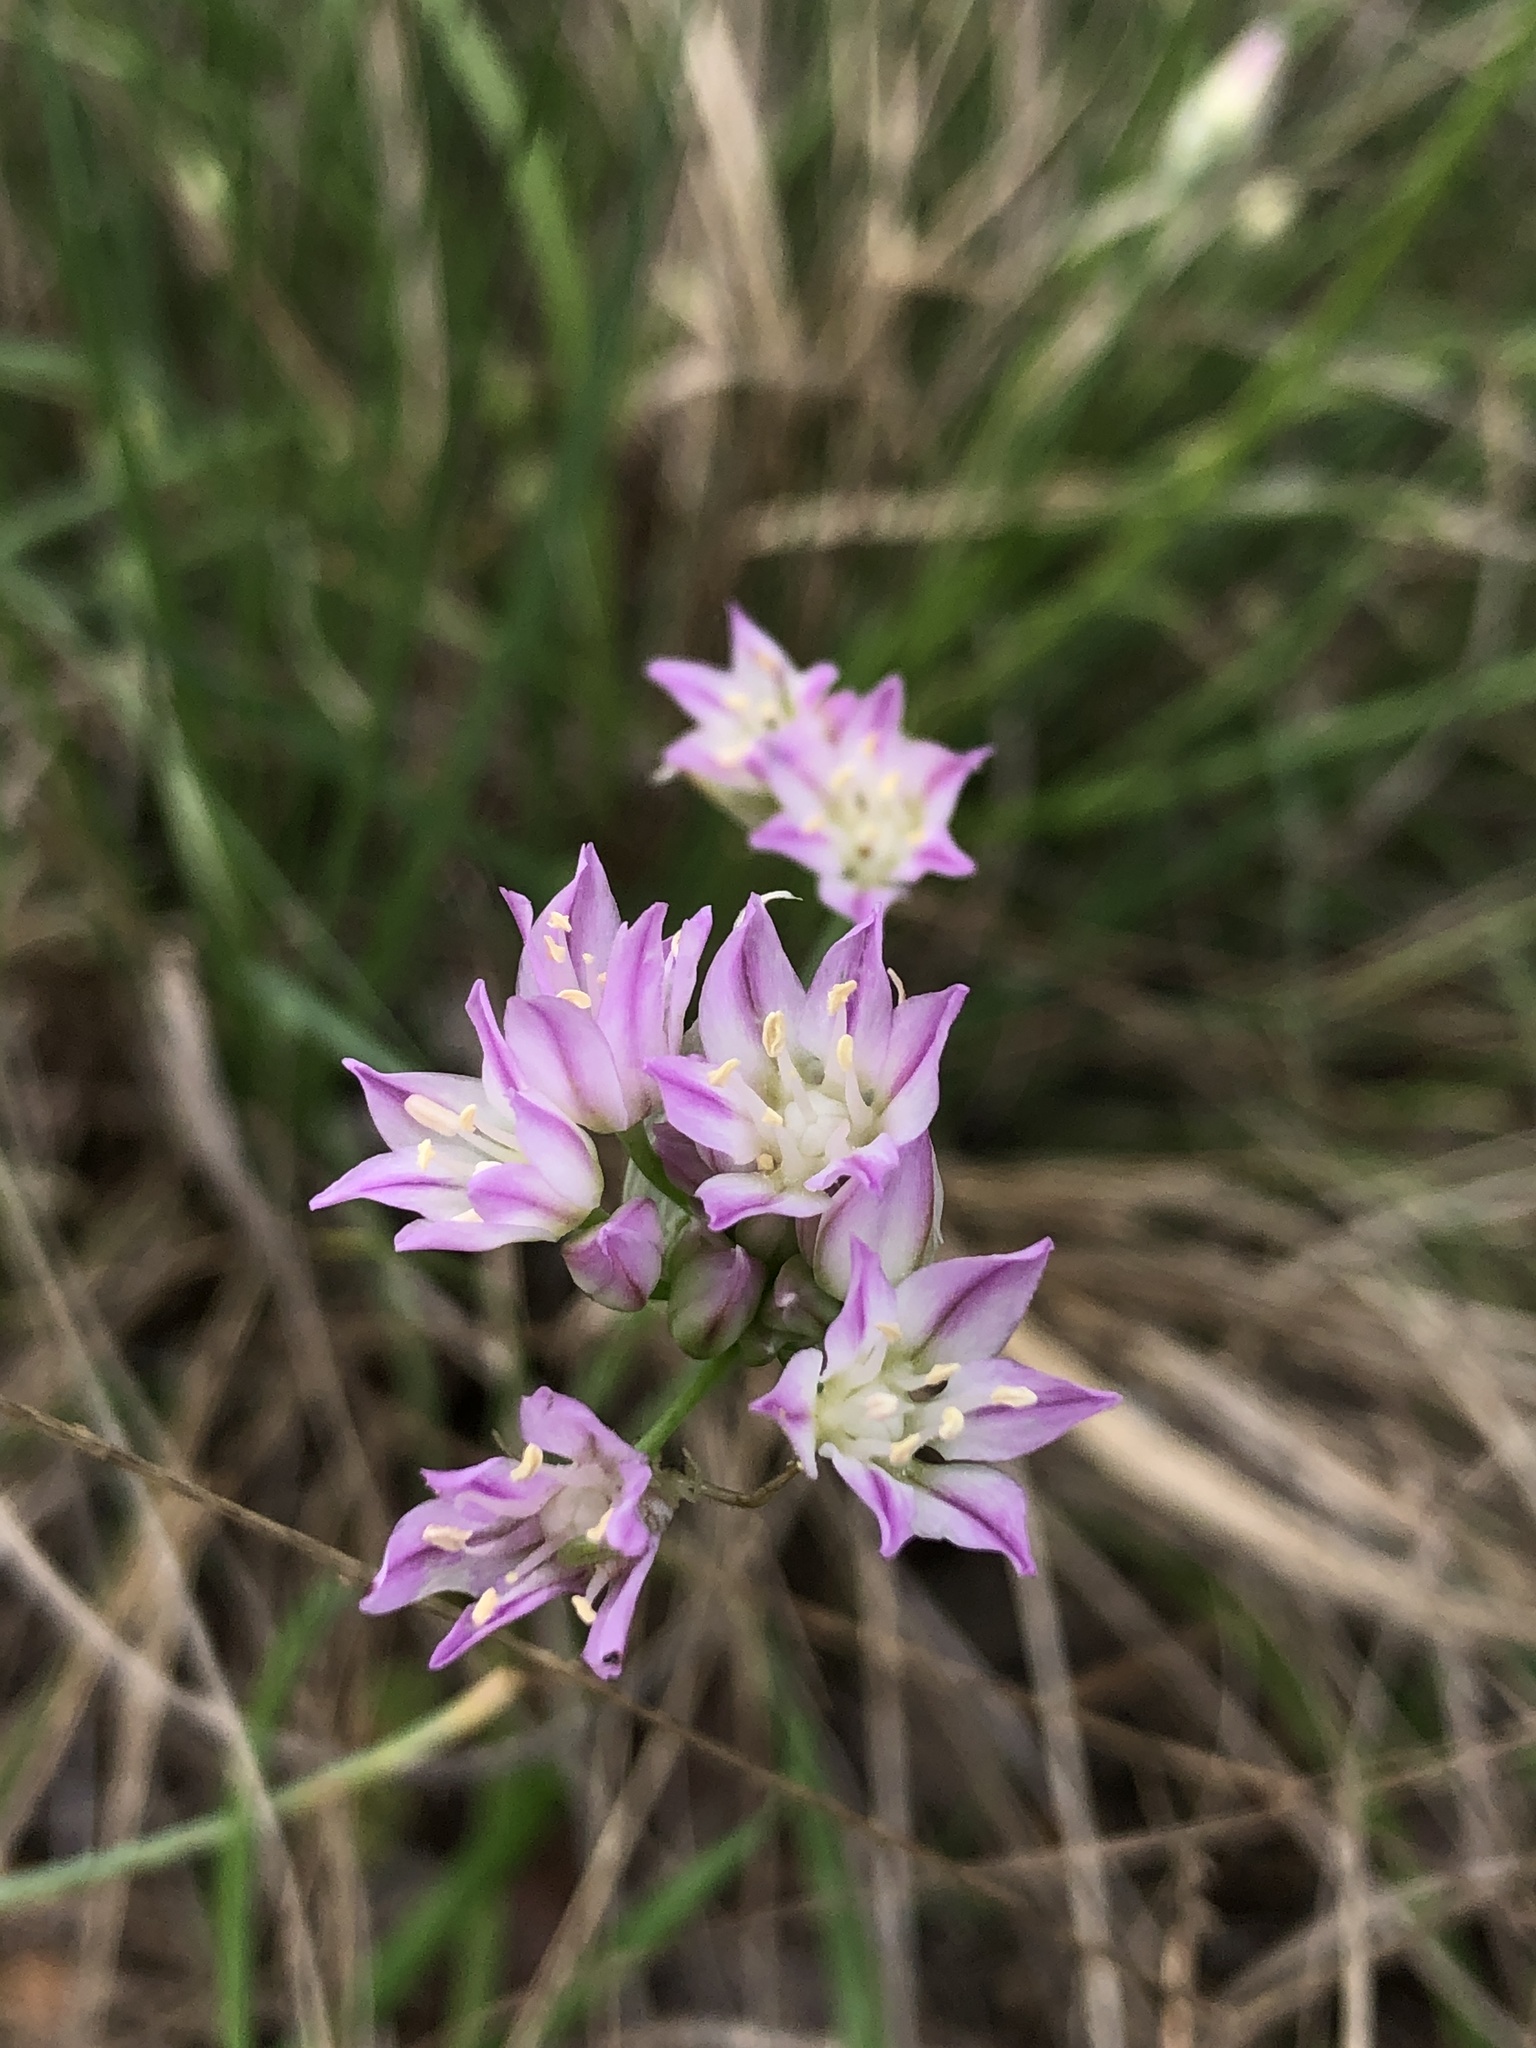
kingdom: Plantae
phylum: Tracheophyta
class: Liliopsida
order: Asparagales
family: Amaryllidaceae
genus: Allium
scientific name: Allium drummondii
